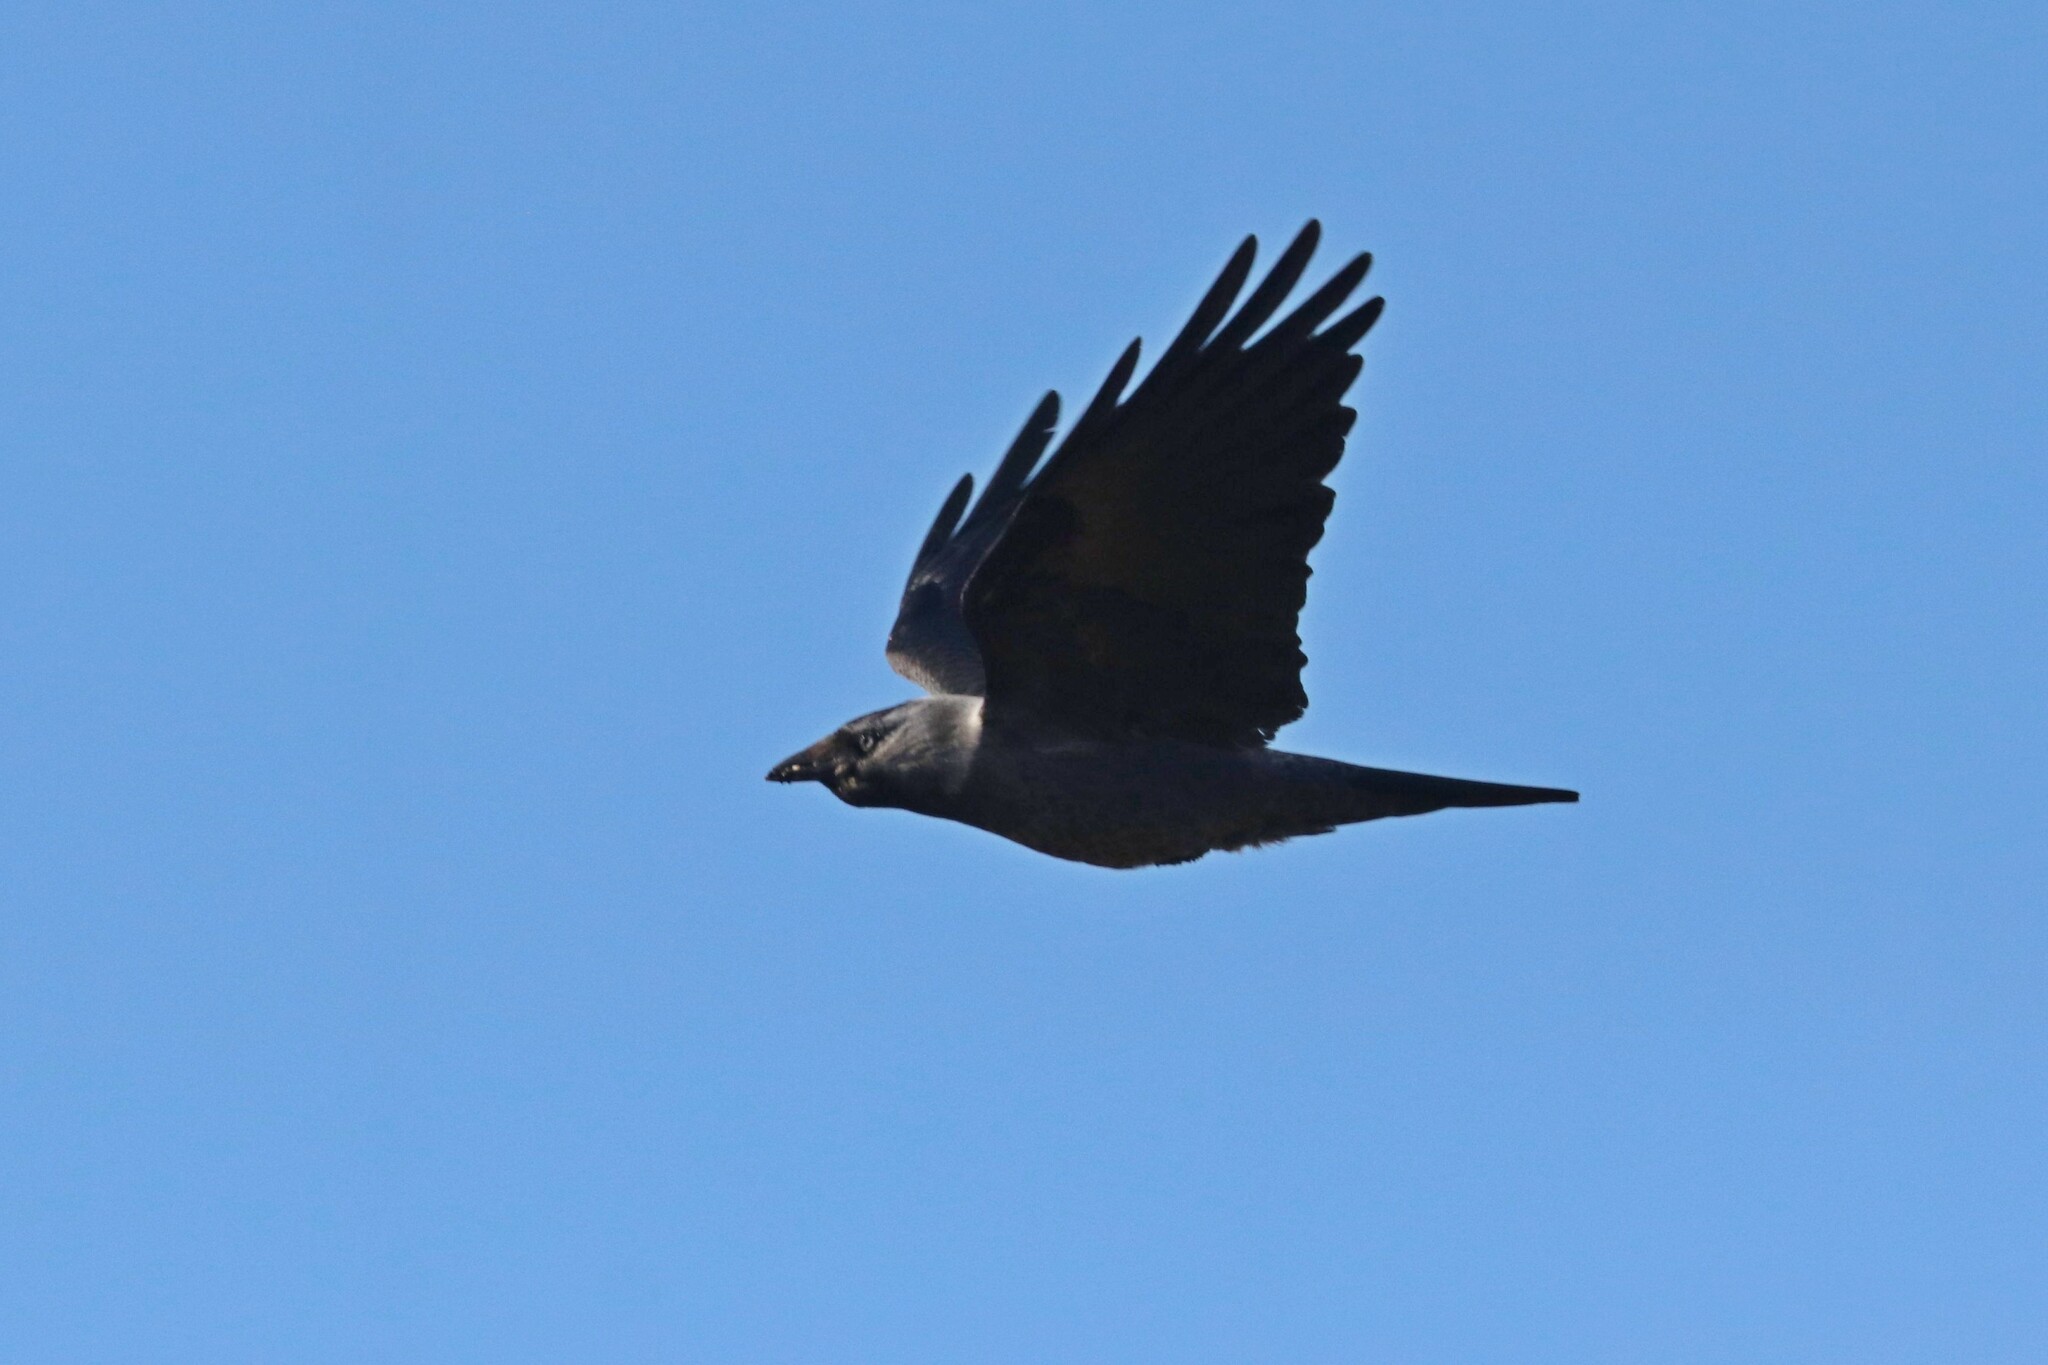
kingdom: Animalia
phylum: Chordata
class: Aves
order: Passeriformes
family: Corvidae
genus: Coloeus
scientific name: Coloeus monedula
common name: Western jackdaw
